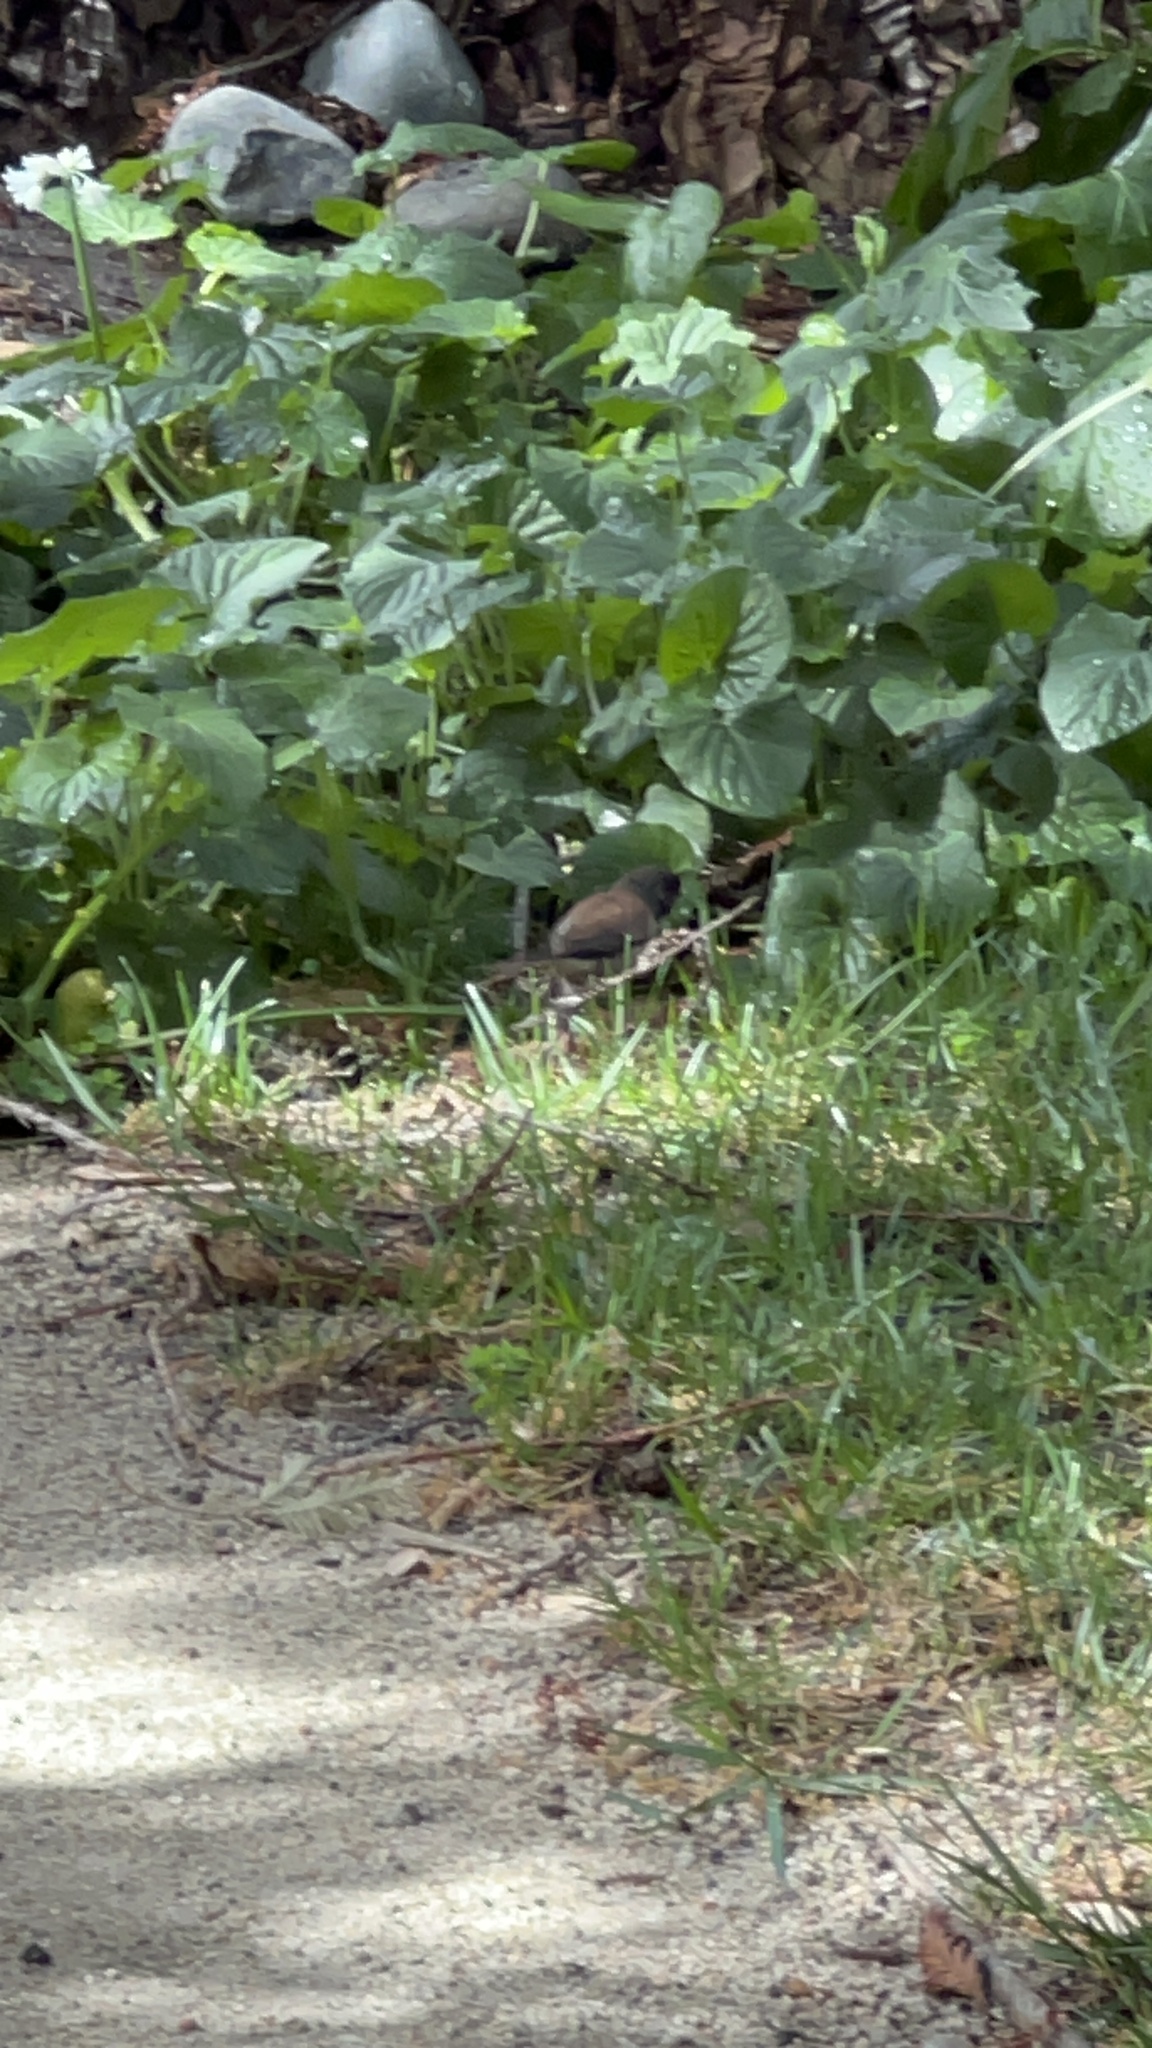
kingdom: Animalia
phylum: Chordata
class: Aves
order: Passeriformes
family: Passerellidae
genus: Junco
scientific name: Junco hyemalis
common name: Dark-eyed junco
